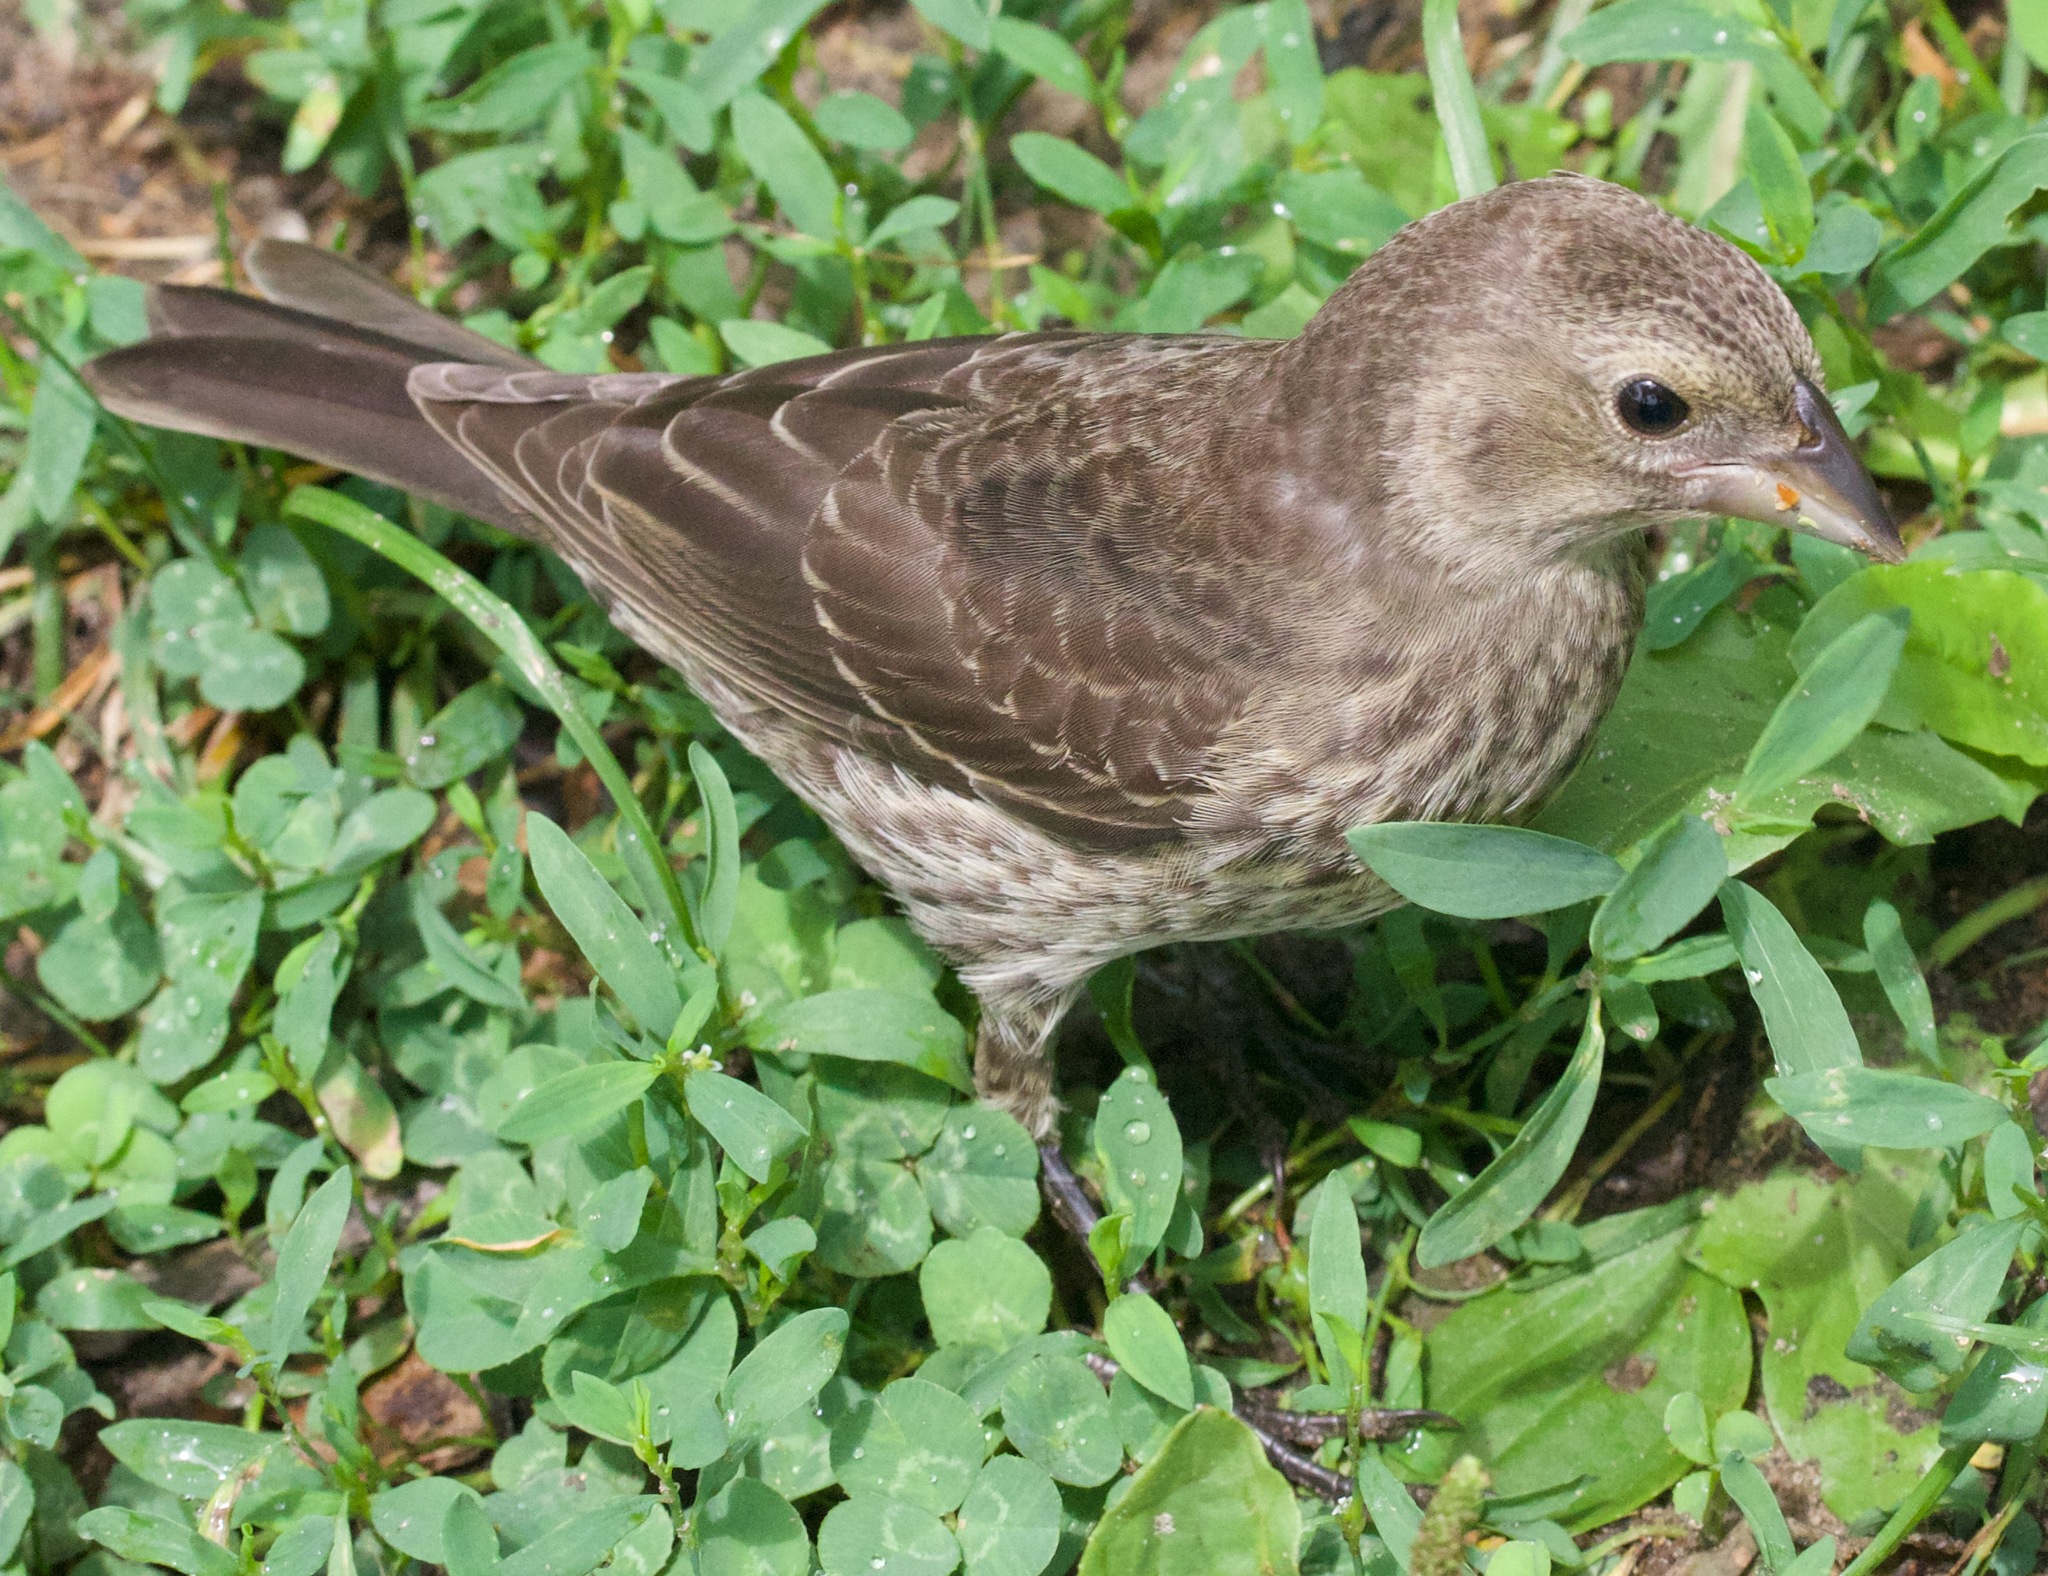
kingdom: Animalia
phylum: Chordata
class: Aves
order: Passeriformes
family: Icteridae
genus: Molothrus
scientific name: Molothrus ater
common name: Brown-headed cowbird
